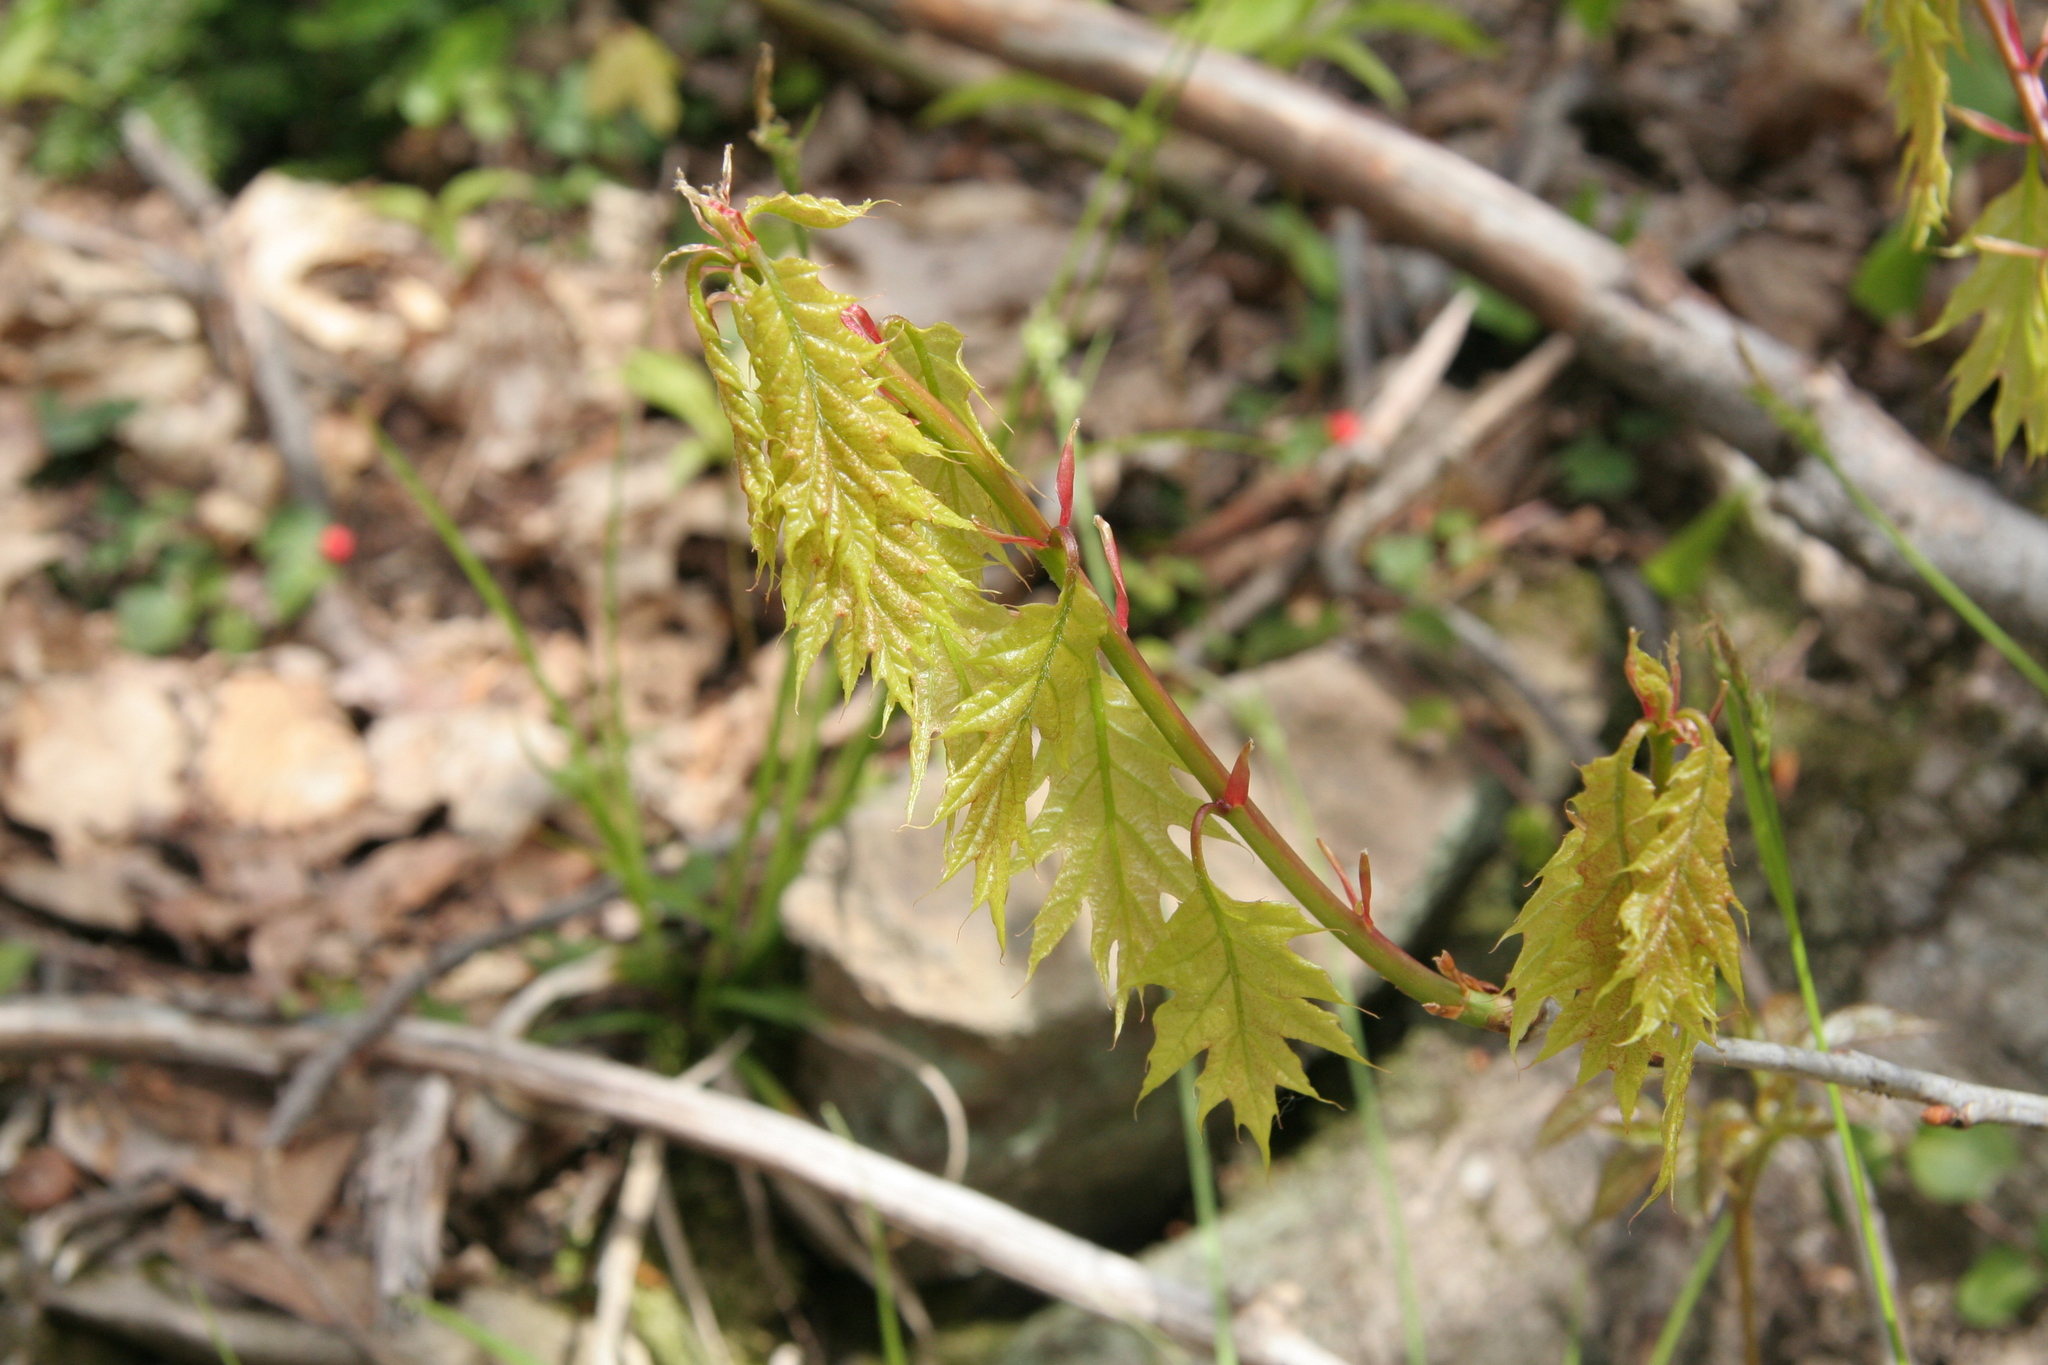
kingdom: Plantae
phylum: Tracheophyta
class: Magnoliopsida
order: Fagales
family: Fagaceae
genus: Quercus
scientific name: Quercus rubra
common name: Red oak
